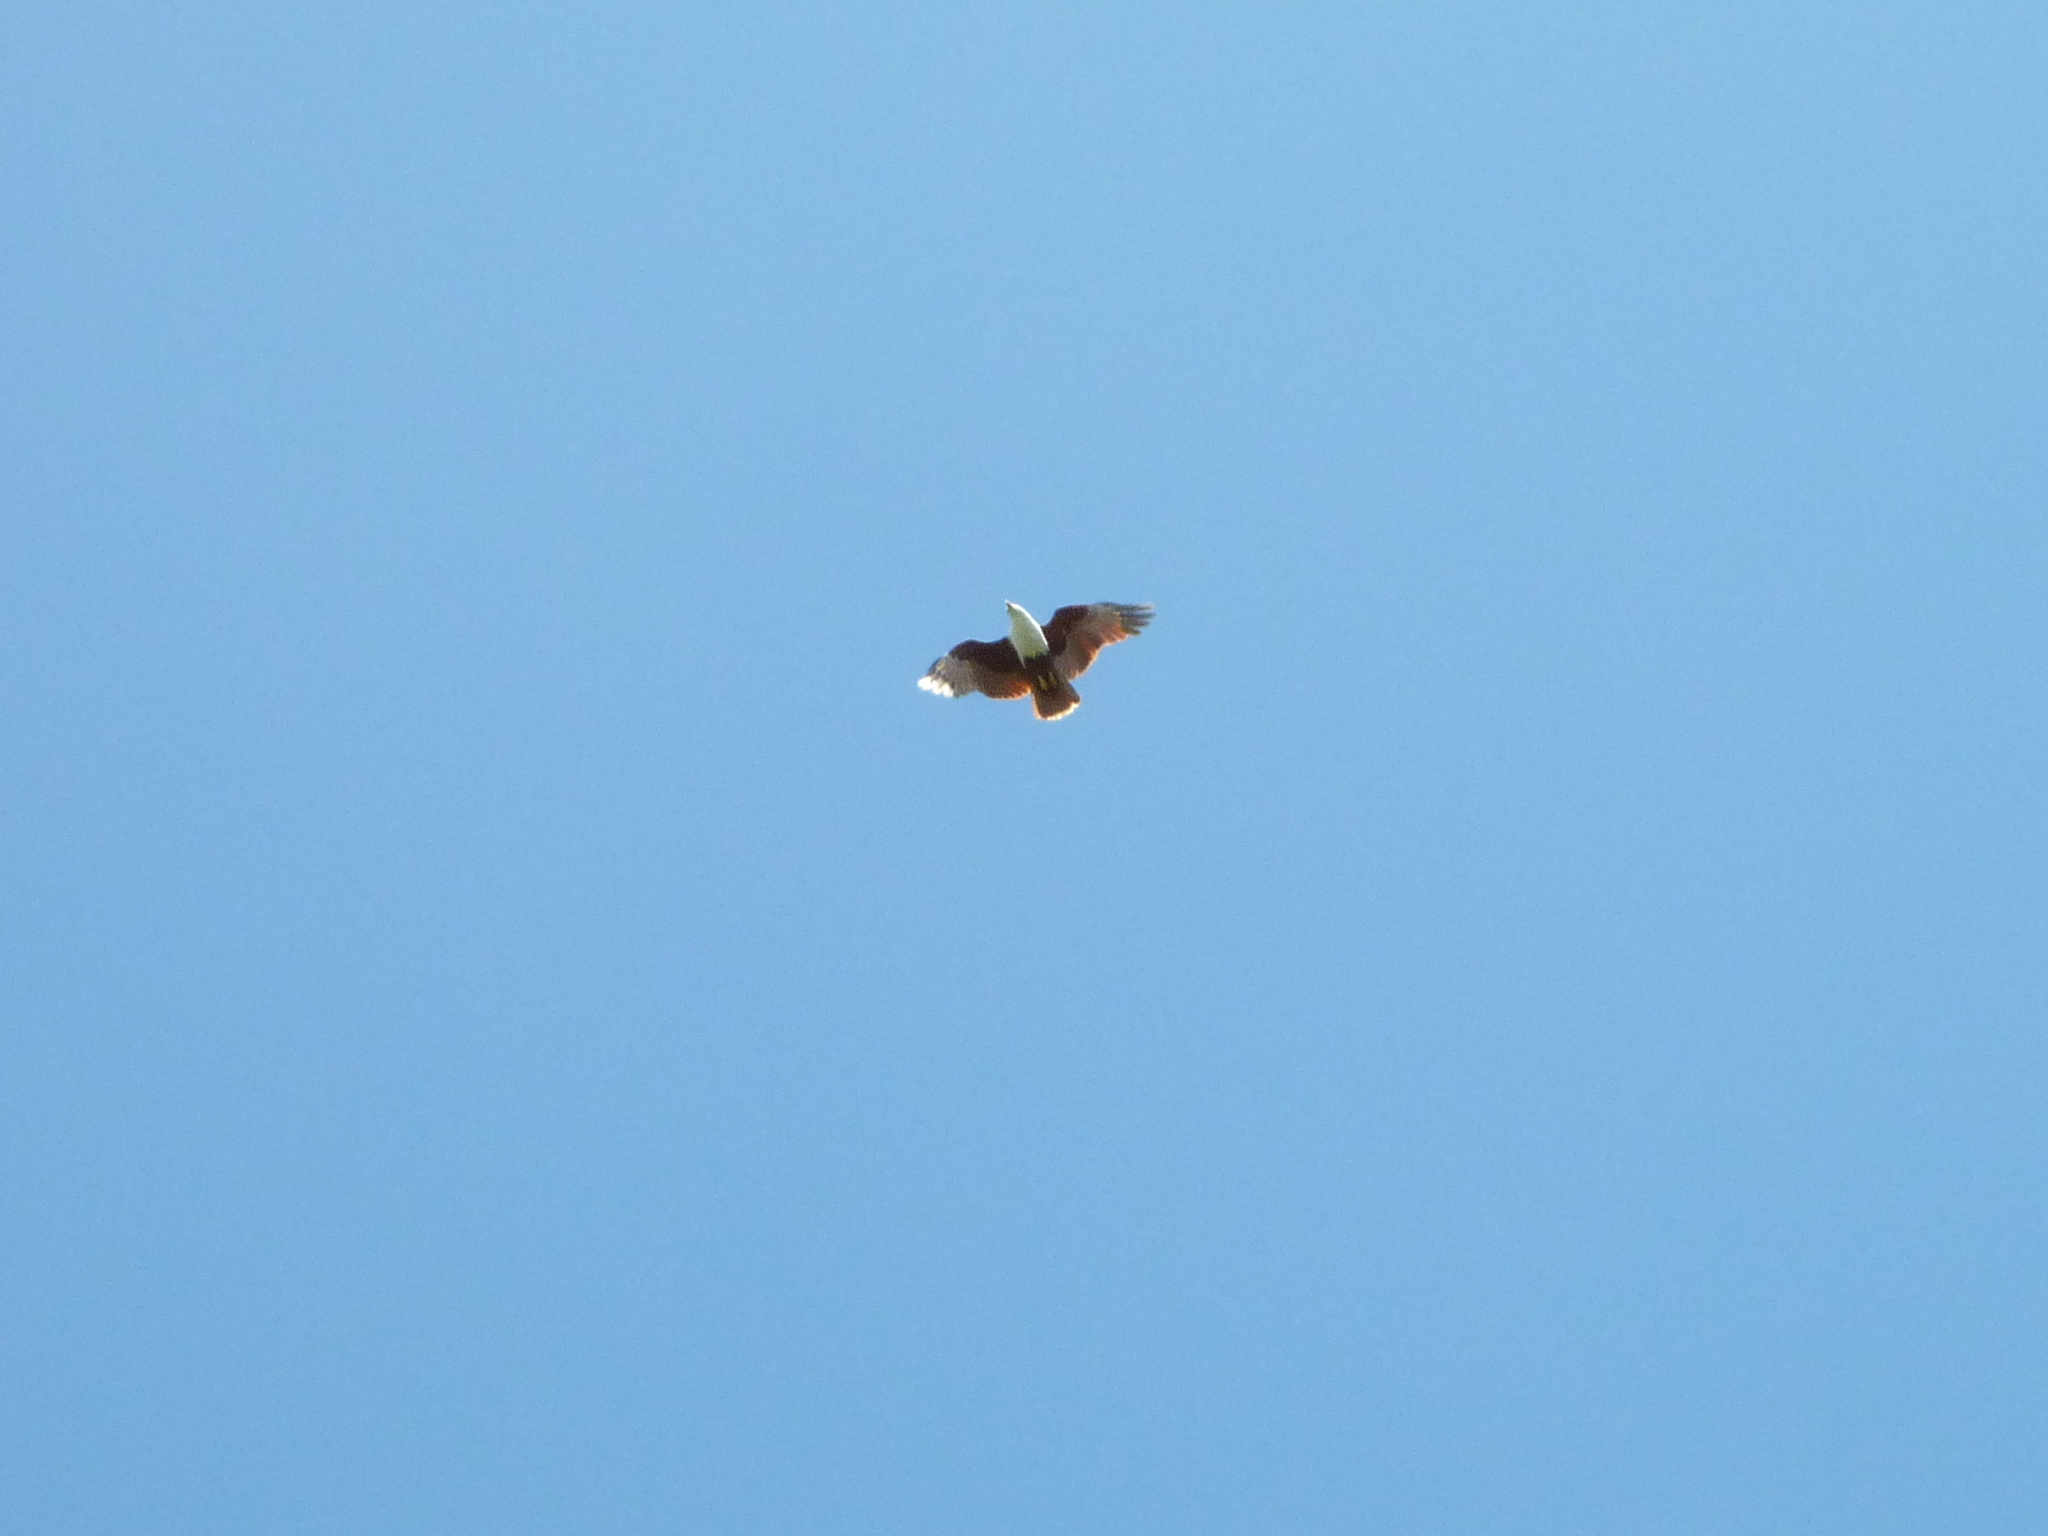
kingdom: Animalia
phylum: Chordata
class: Aves
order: Accipitriformes
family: Accipitridae
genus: Haliastur
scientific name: Haliastur indus
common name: Brahminy kite
